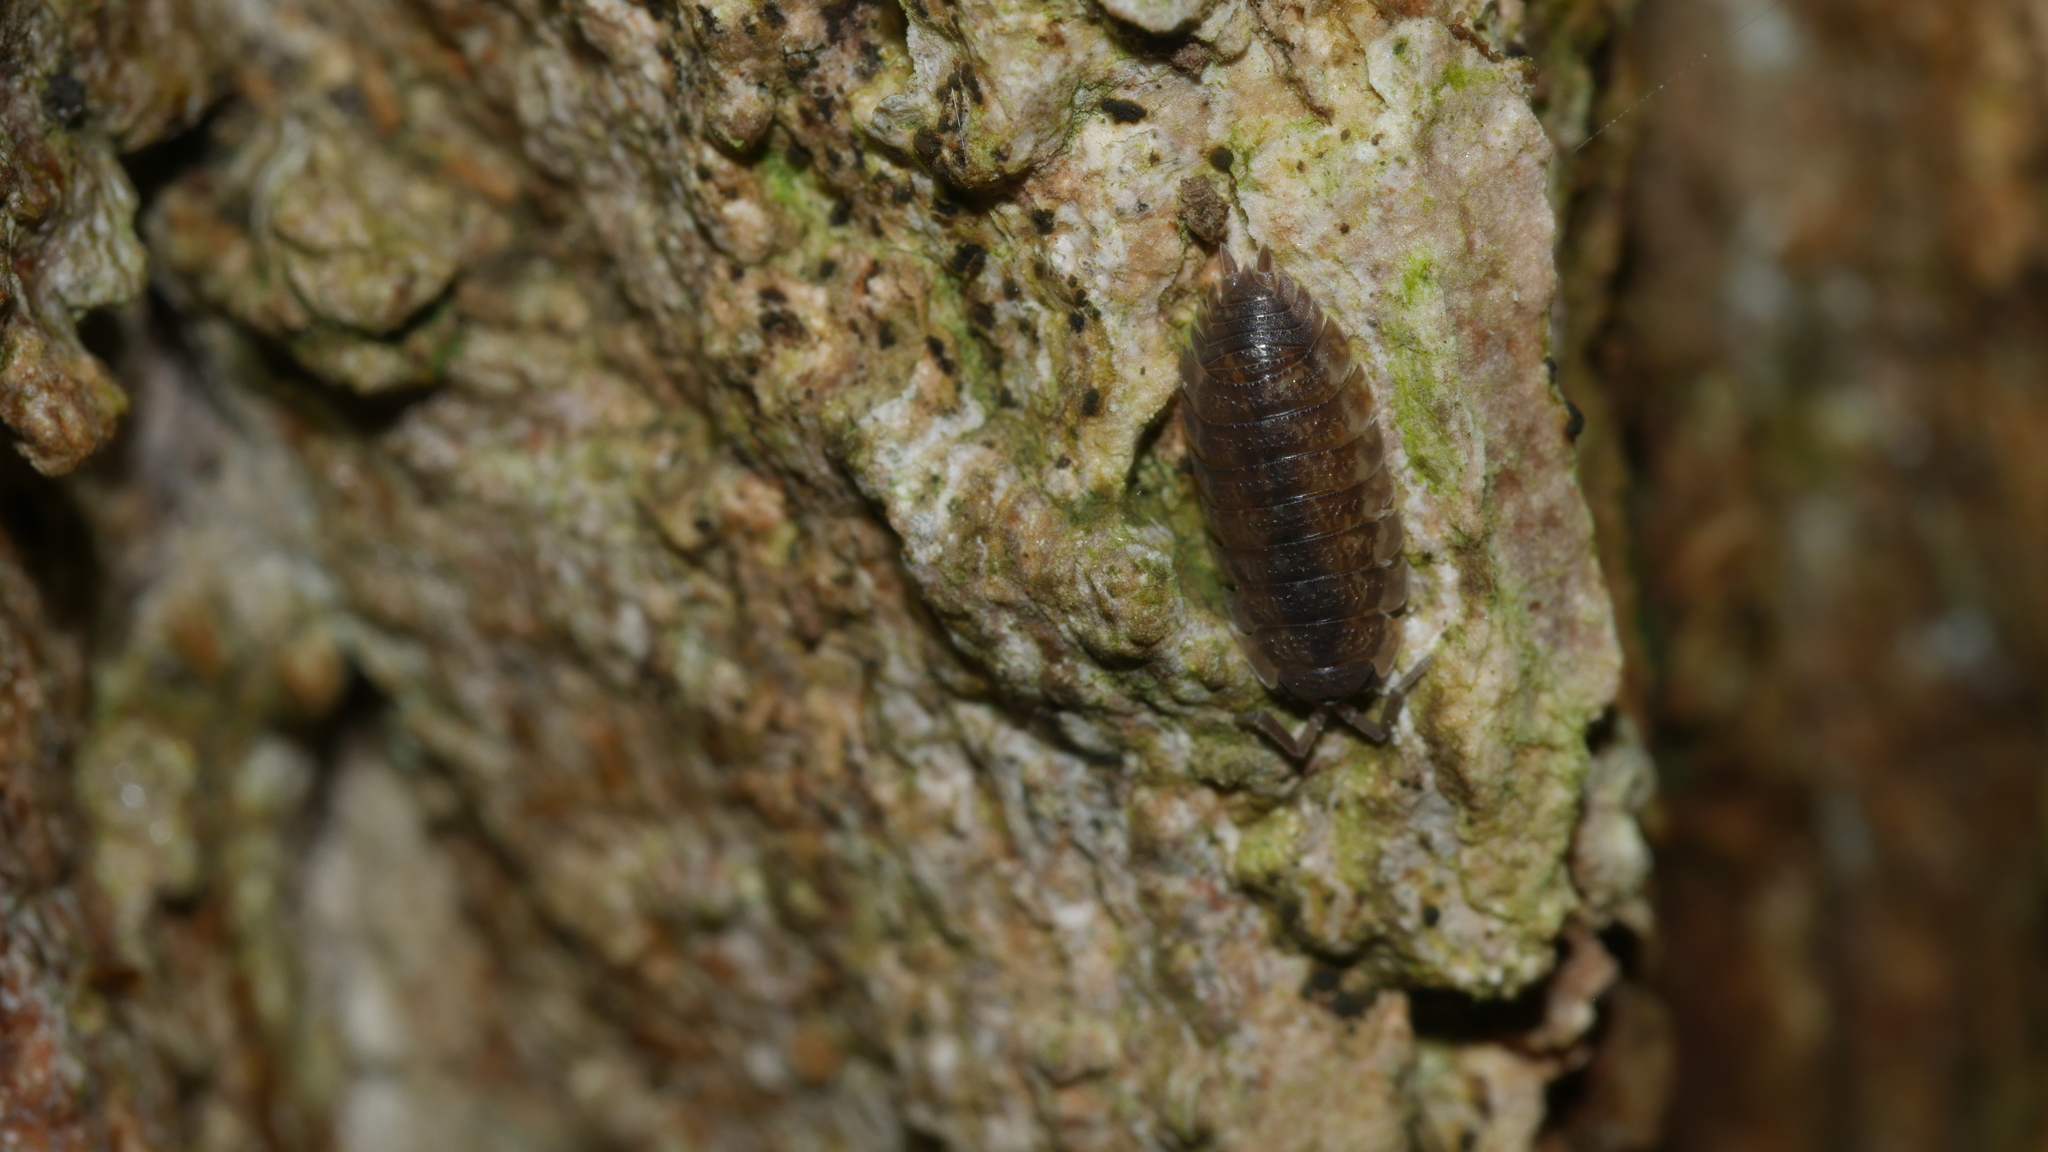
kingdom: Animalia
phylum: Arthropoda
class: Malacostraca
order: Isopoda
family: Porcellionidae
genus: Porcellio
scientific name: Porcellio scaber
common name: Common rough woodlouse
